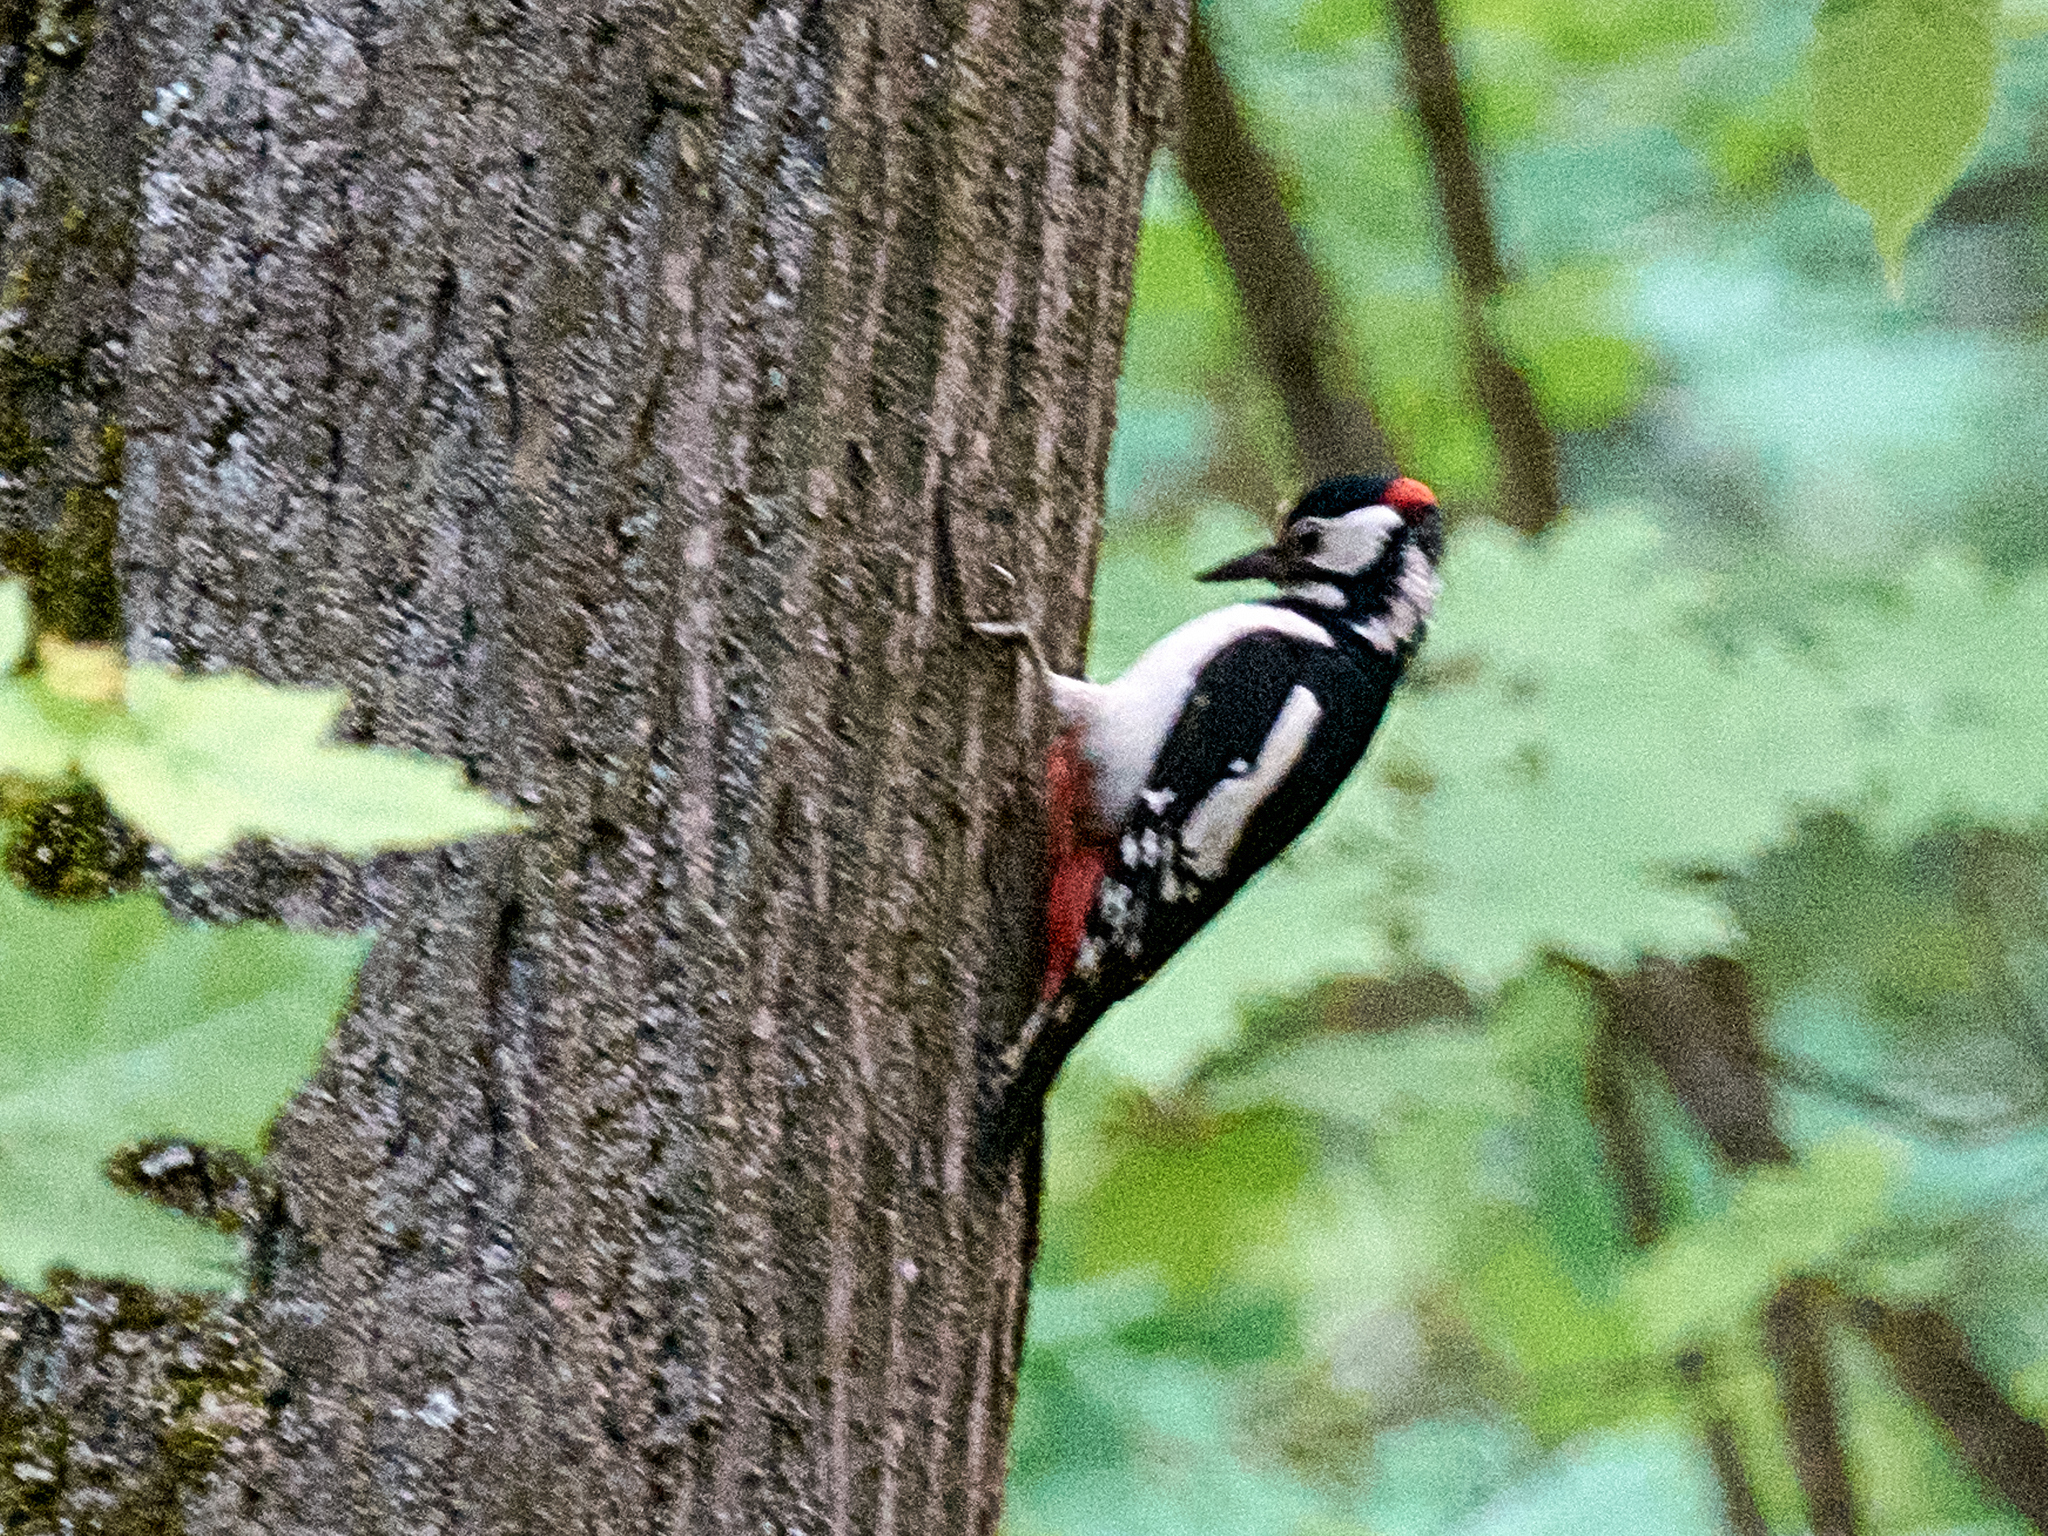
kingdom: Animalia
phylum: Chordata
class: Aves
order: Piciformes
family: Picidae
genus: Dendrocopos
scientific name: Dendrocopos major
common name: Great spotted woodpecker
